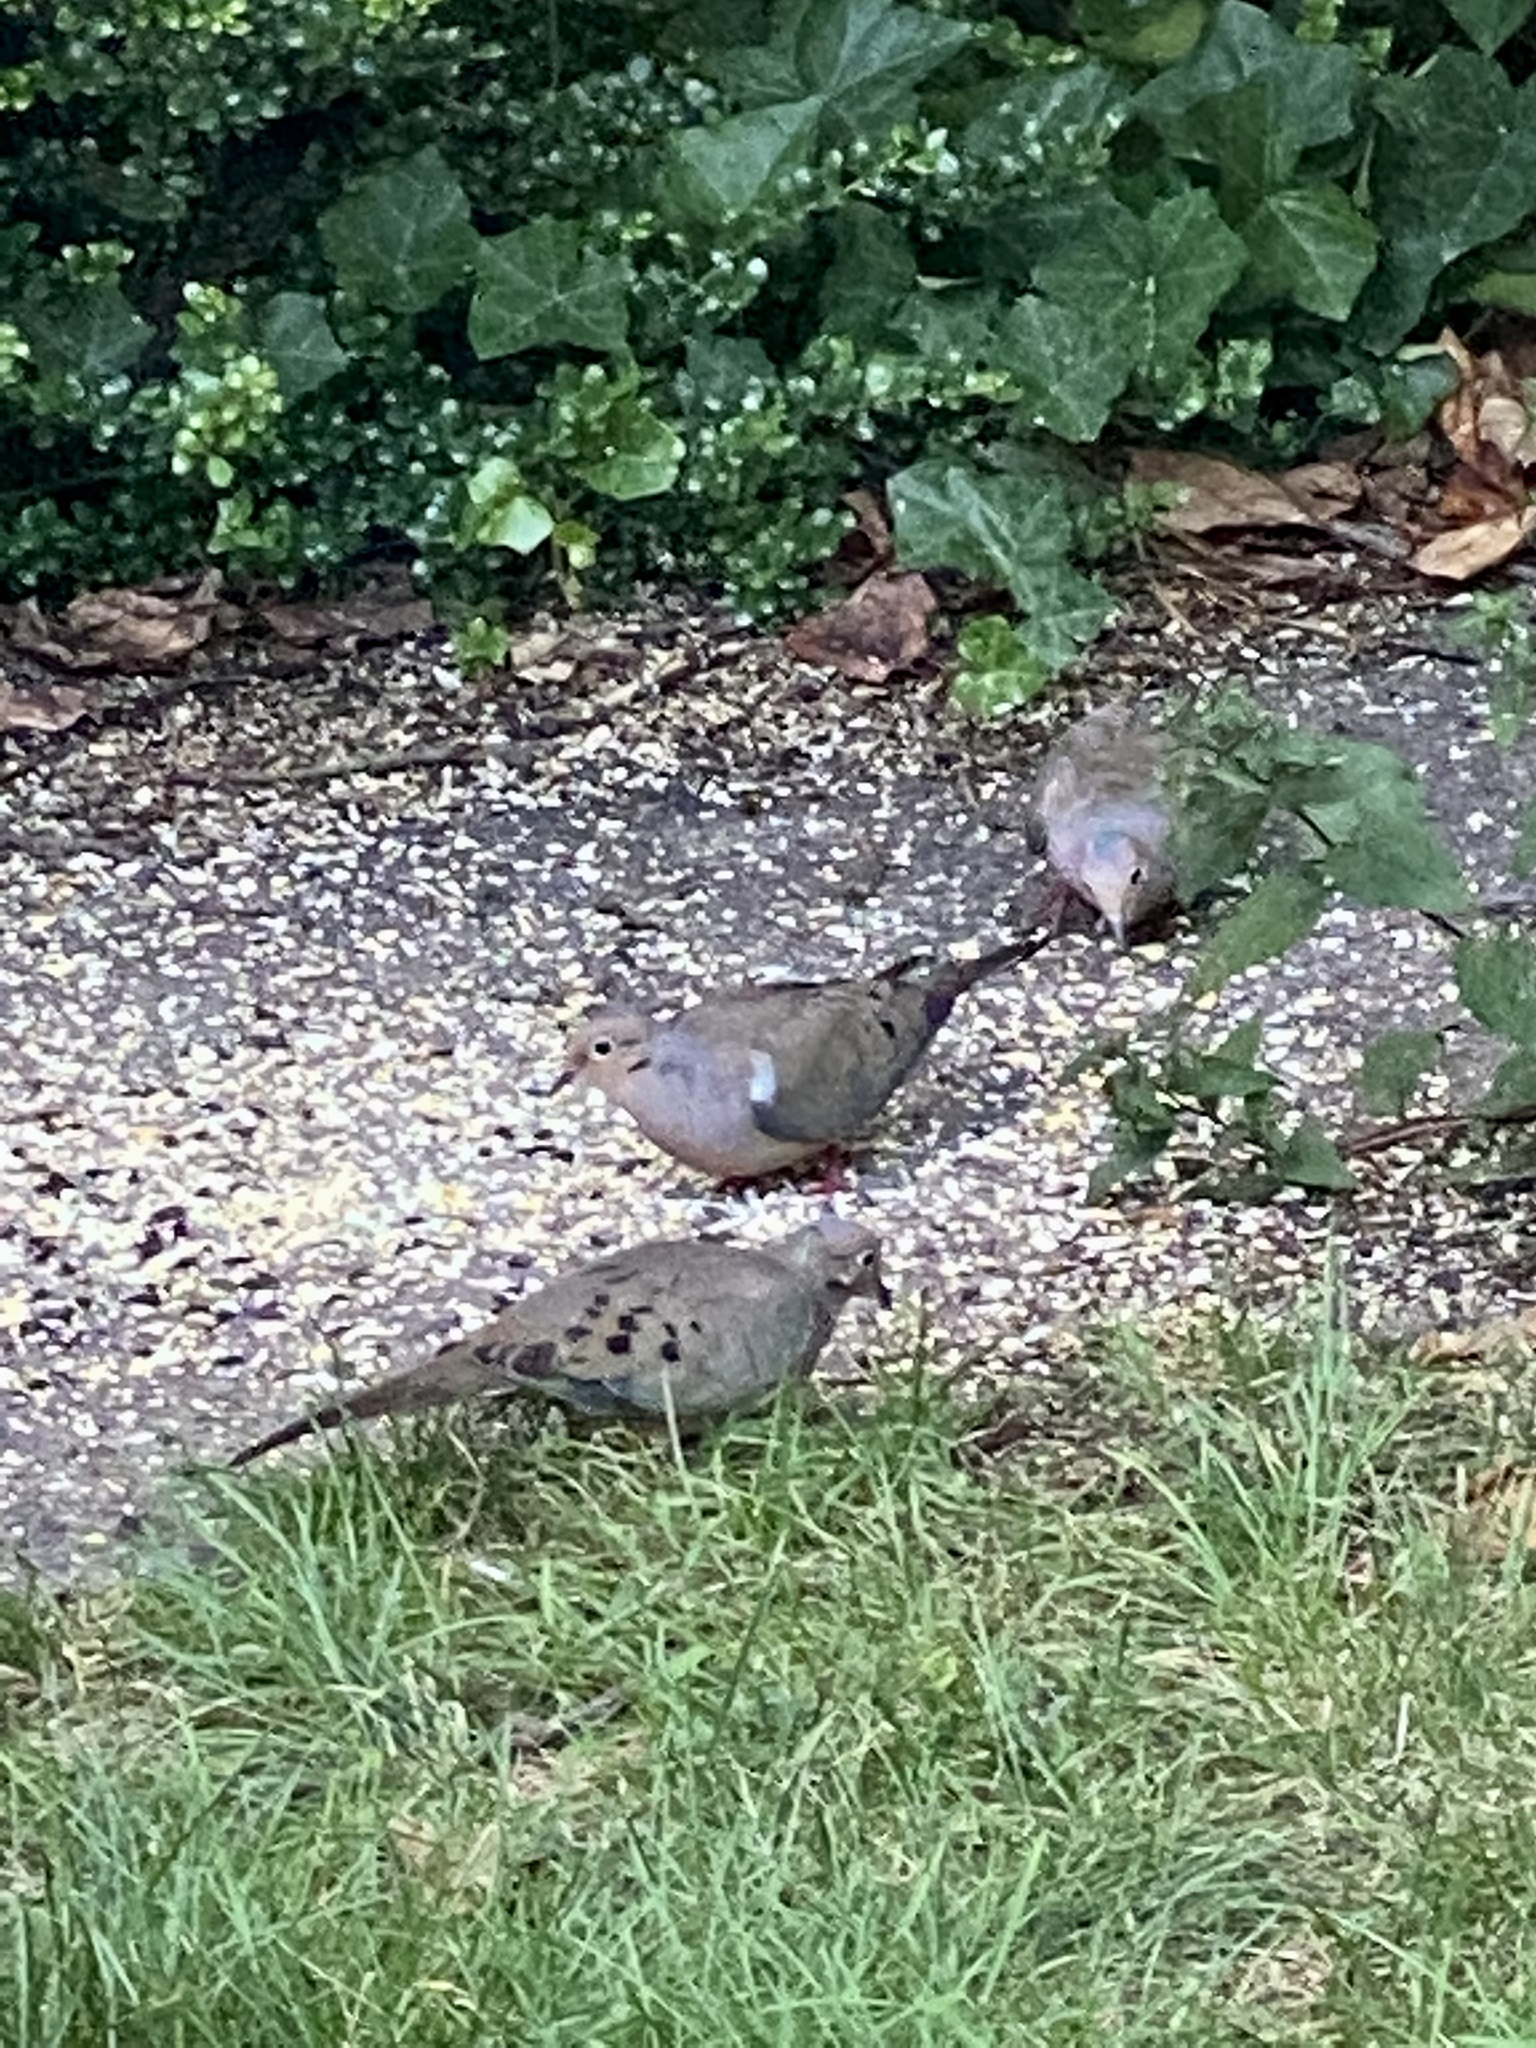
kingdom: Animalia
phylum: Chordata
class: Aves
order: Columbiformes
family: Columbidae
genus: Zenaida
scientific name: Zenaida macroura
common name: Mourning dove
